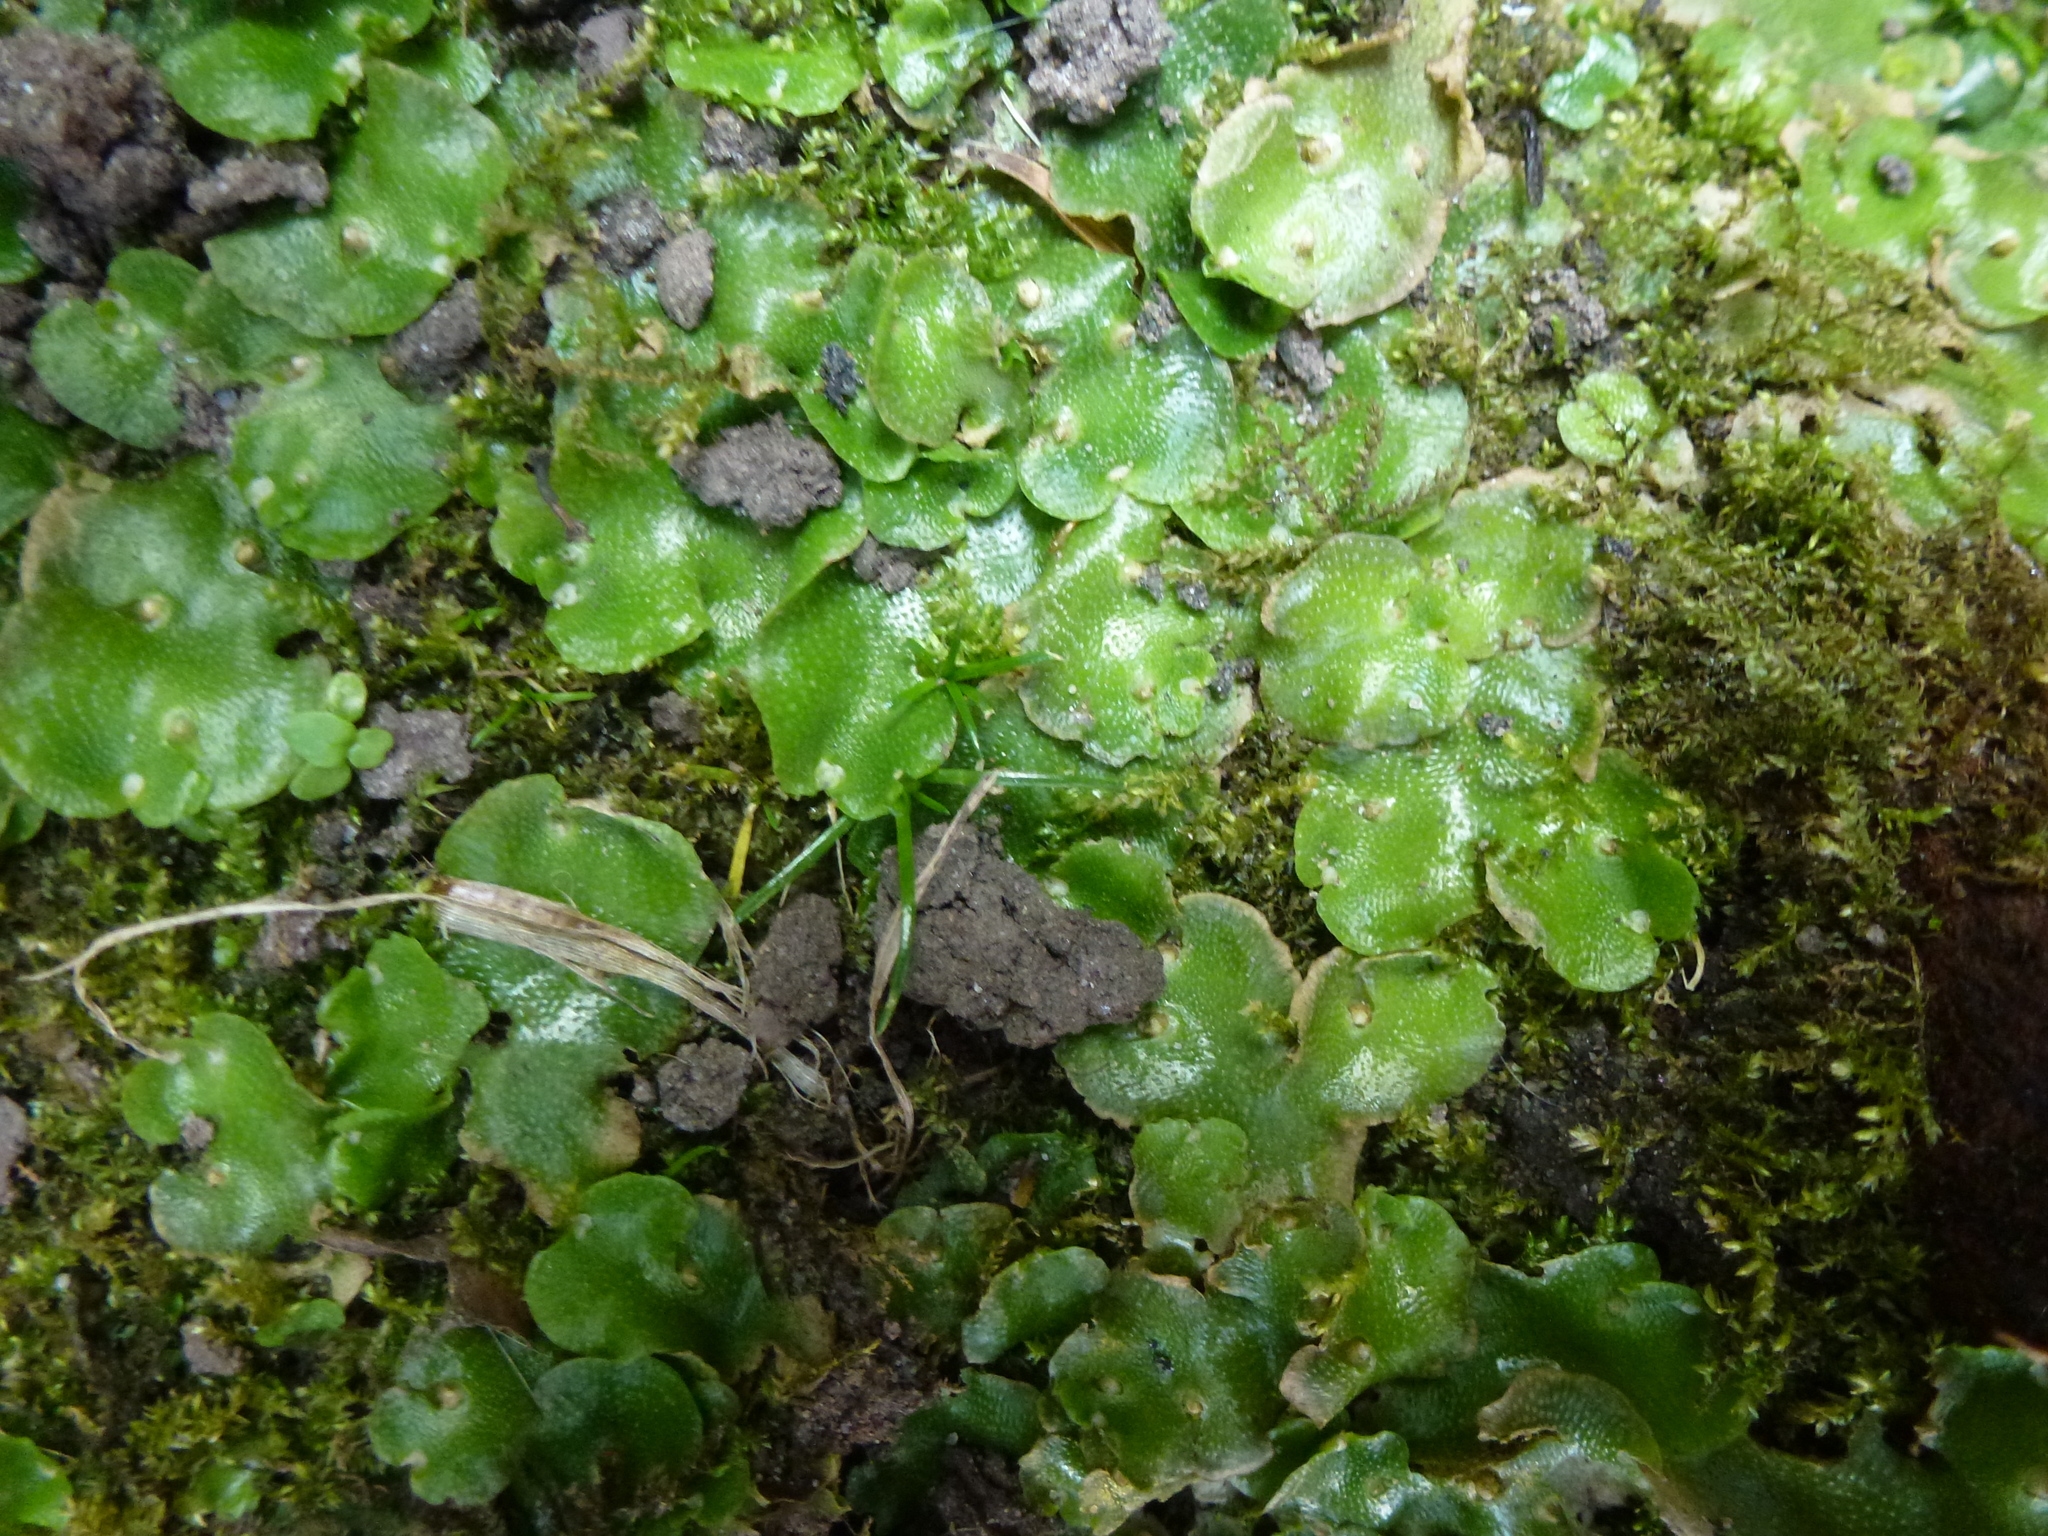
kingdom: Plantae
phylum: Marchantiophyta
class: Marchantiopsida
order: Lunulariales
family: Lunulariaceae
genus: Lunularia
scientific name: Lunularia cruciata
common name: Crescent-cup liverwort
